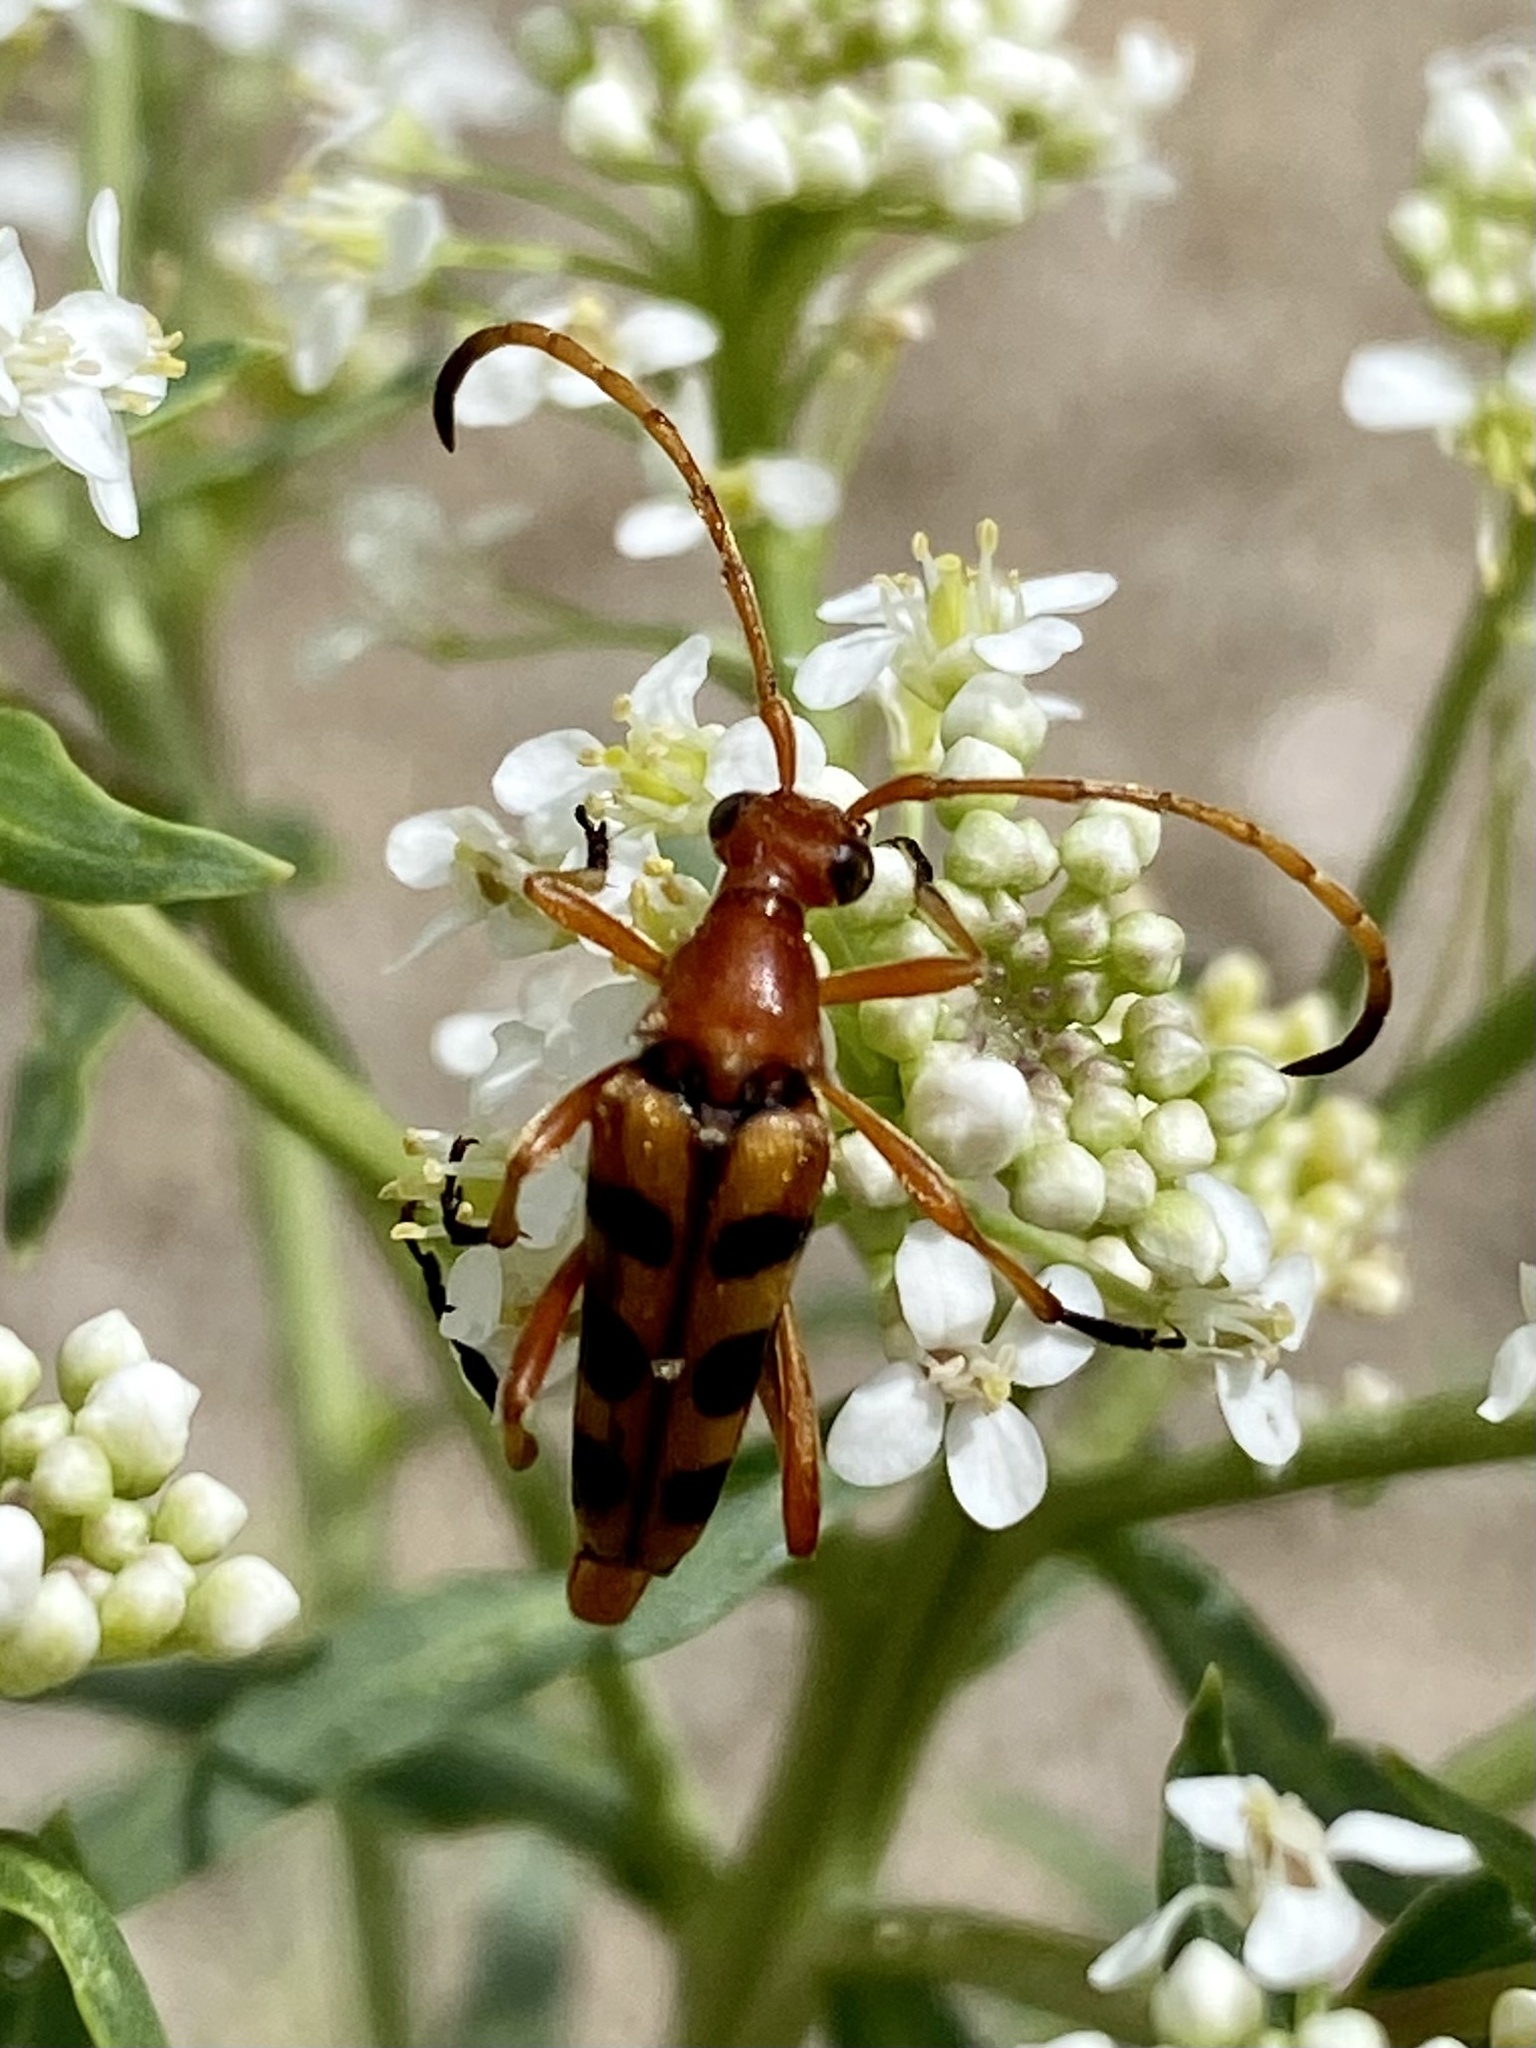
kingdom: Animalia
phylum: Arthropoda
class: Insecta
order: Coleoptera
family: Cerambycidae
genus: Strangalia
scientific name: Strangalia sexnotata
